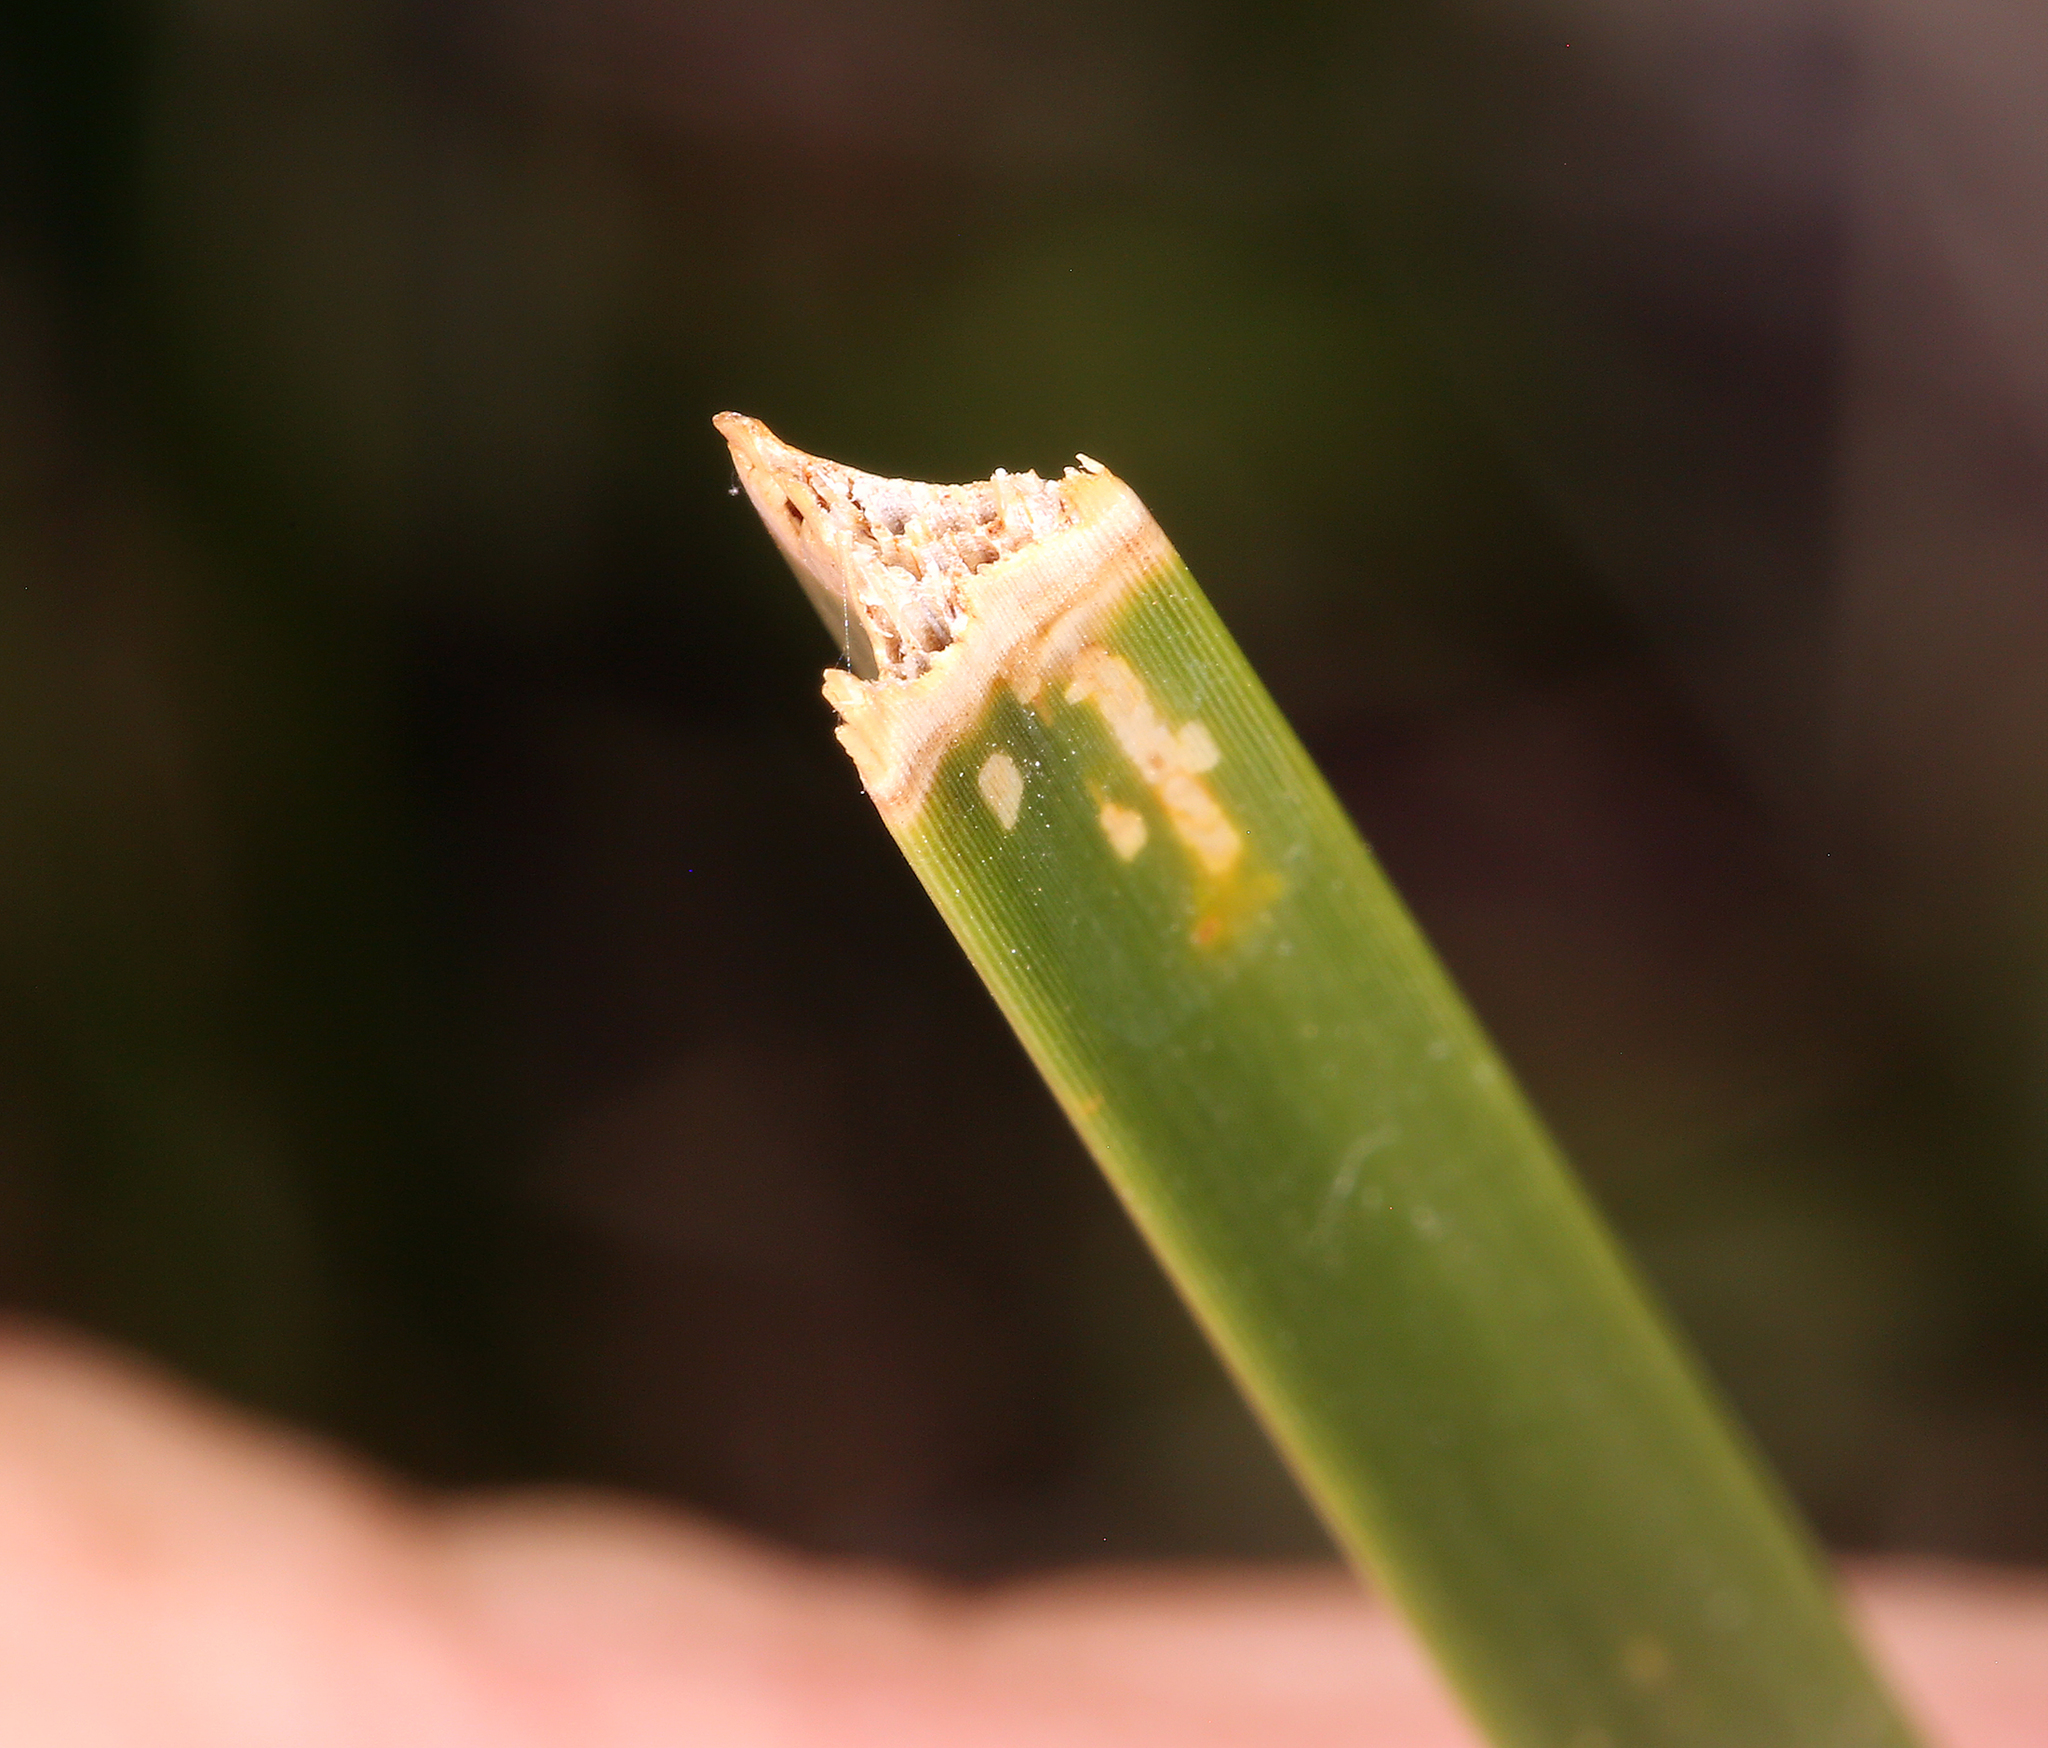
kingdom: Plantae
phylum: Tracheophyta
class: Liliopsida
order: Poales
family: Cyperaceae
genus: Schoenoplectus
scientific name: Schoenoplectus americanus
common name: American three-square bulrush
